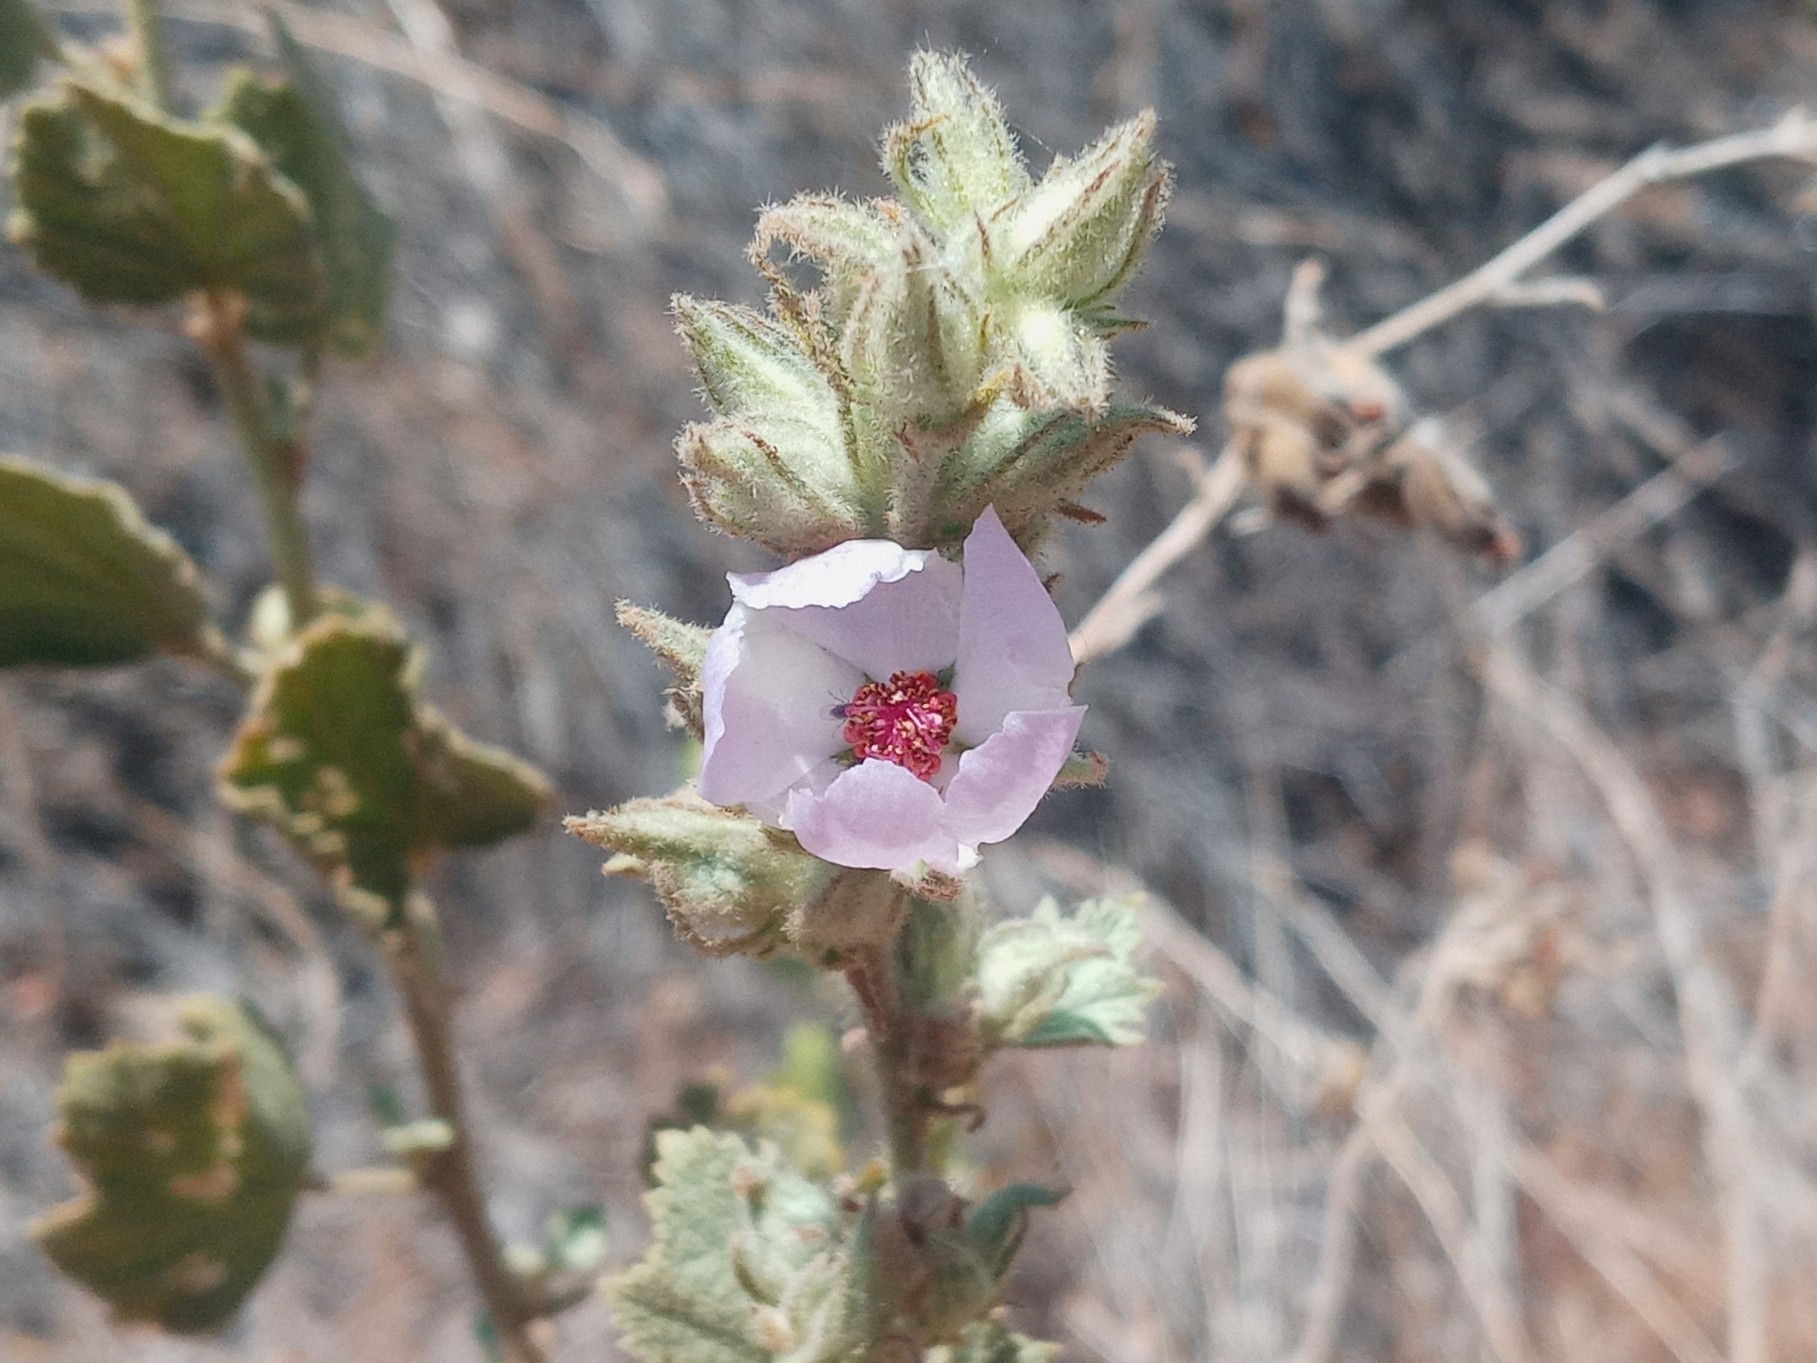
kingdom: Plantae
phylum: Tracheophyta
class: Magnoliopsida
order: Malvales
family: Malvaceae
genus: Malacothamnus
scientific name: Malacothamnus marrubioides
